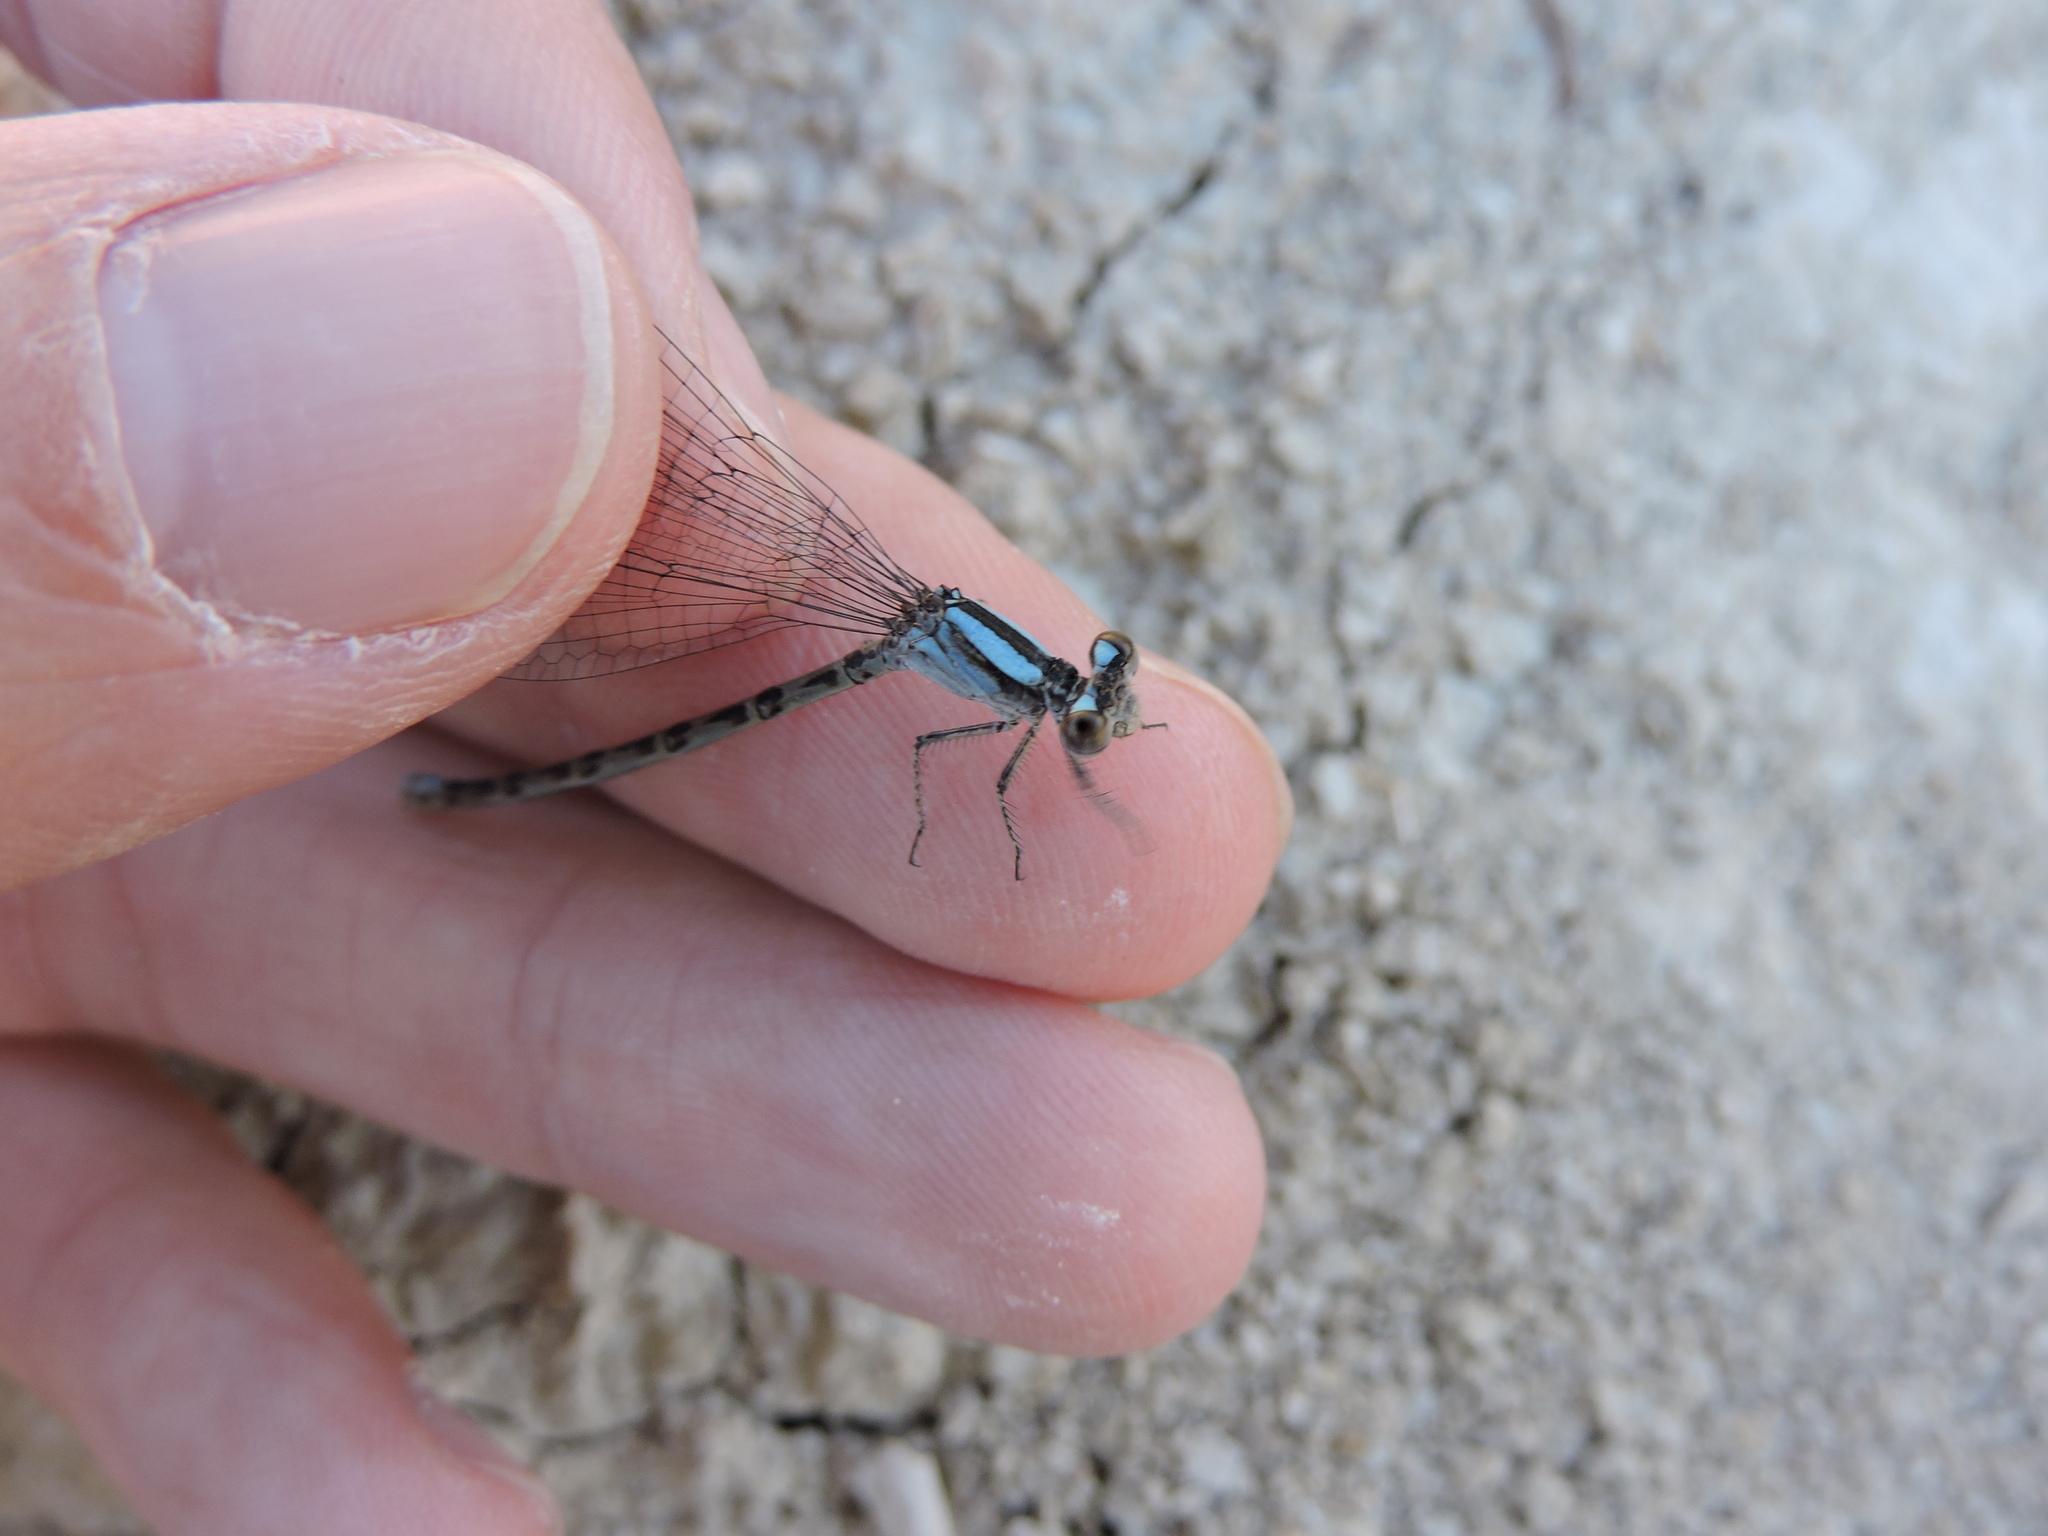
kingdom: Animalia
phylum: Arthropoda
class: Insecta
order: Odonata
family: Coenagrionidae
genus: Argia
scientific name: Argia immunda
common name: Kiowa dancer
